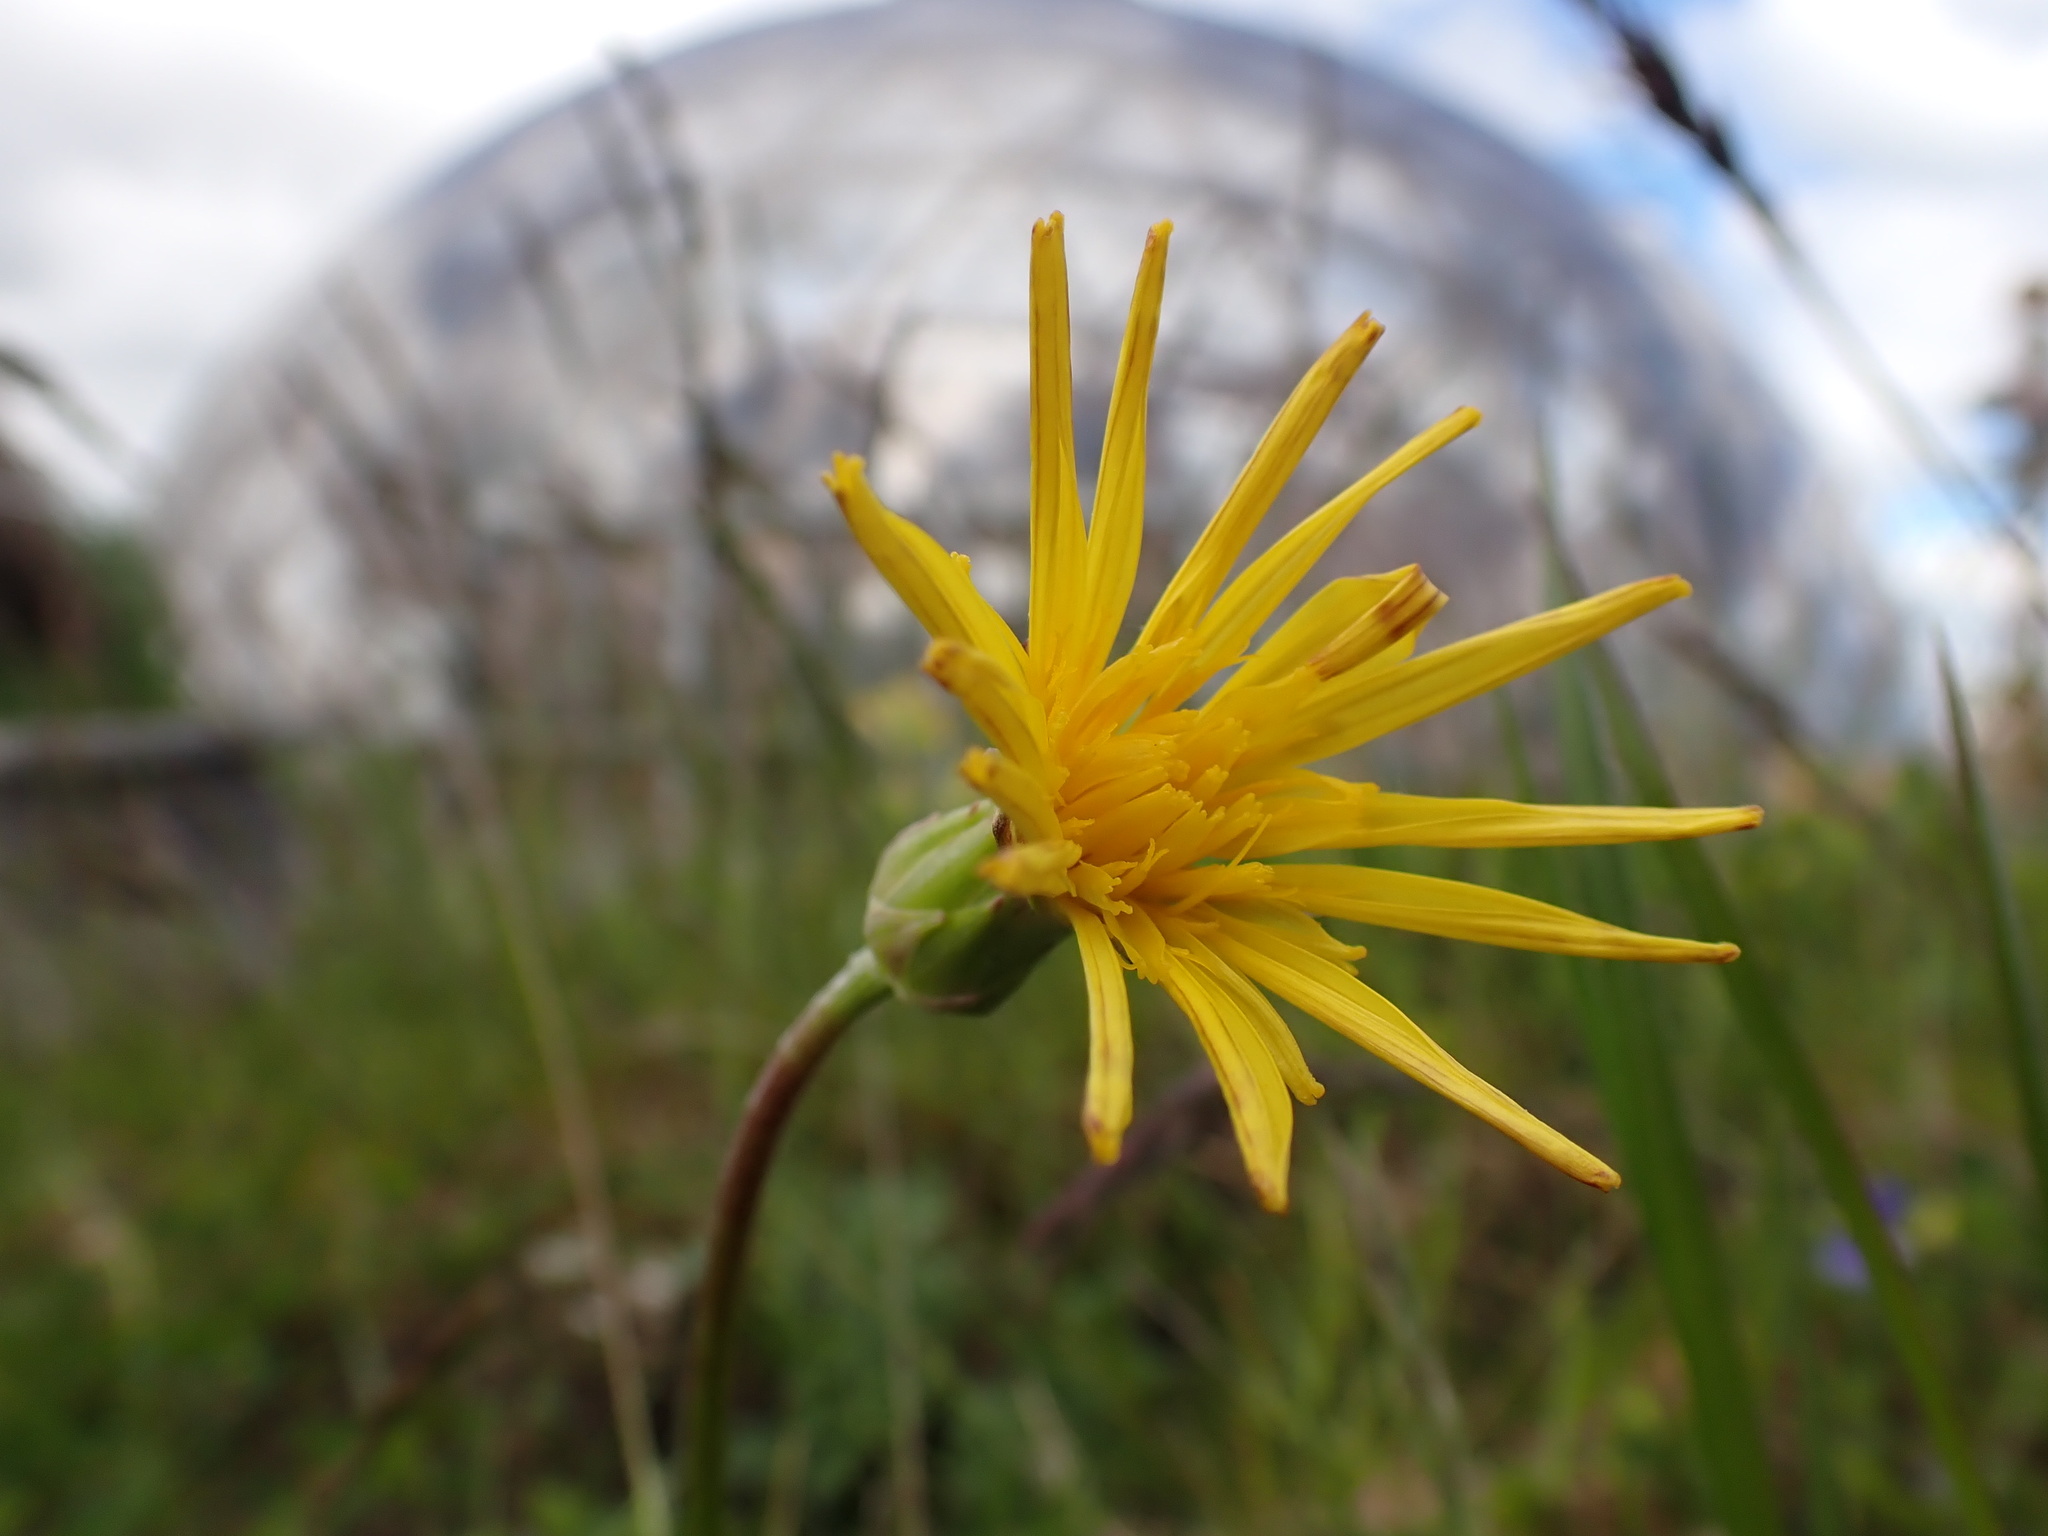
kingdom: Plantae
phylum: Tracheophyta
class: Magnoliopsida
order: Asterales
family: Asteraceae
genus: Scorzonera
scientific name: Scorzonera humilis
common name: Viper's-grass
